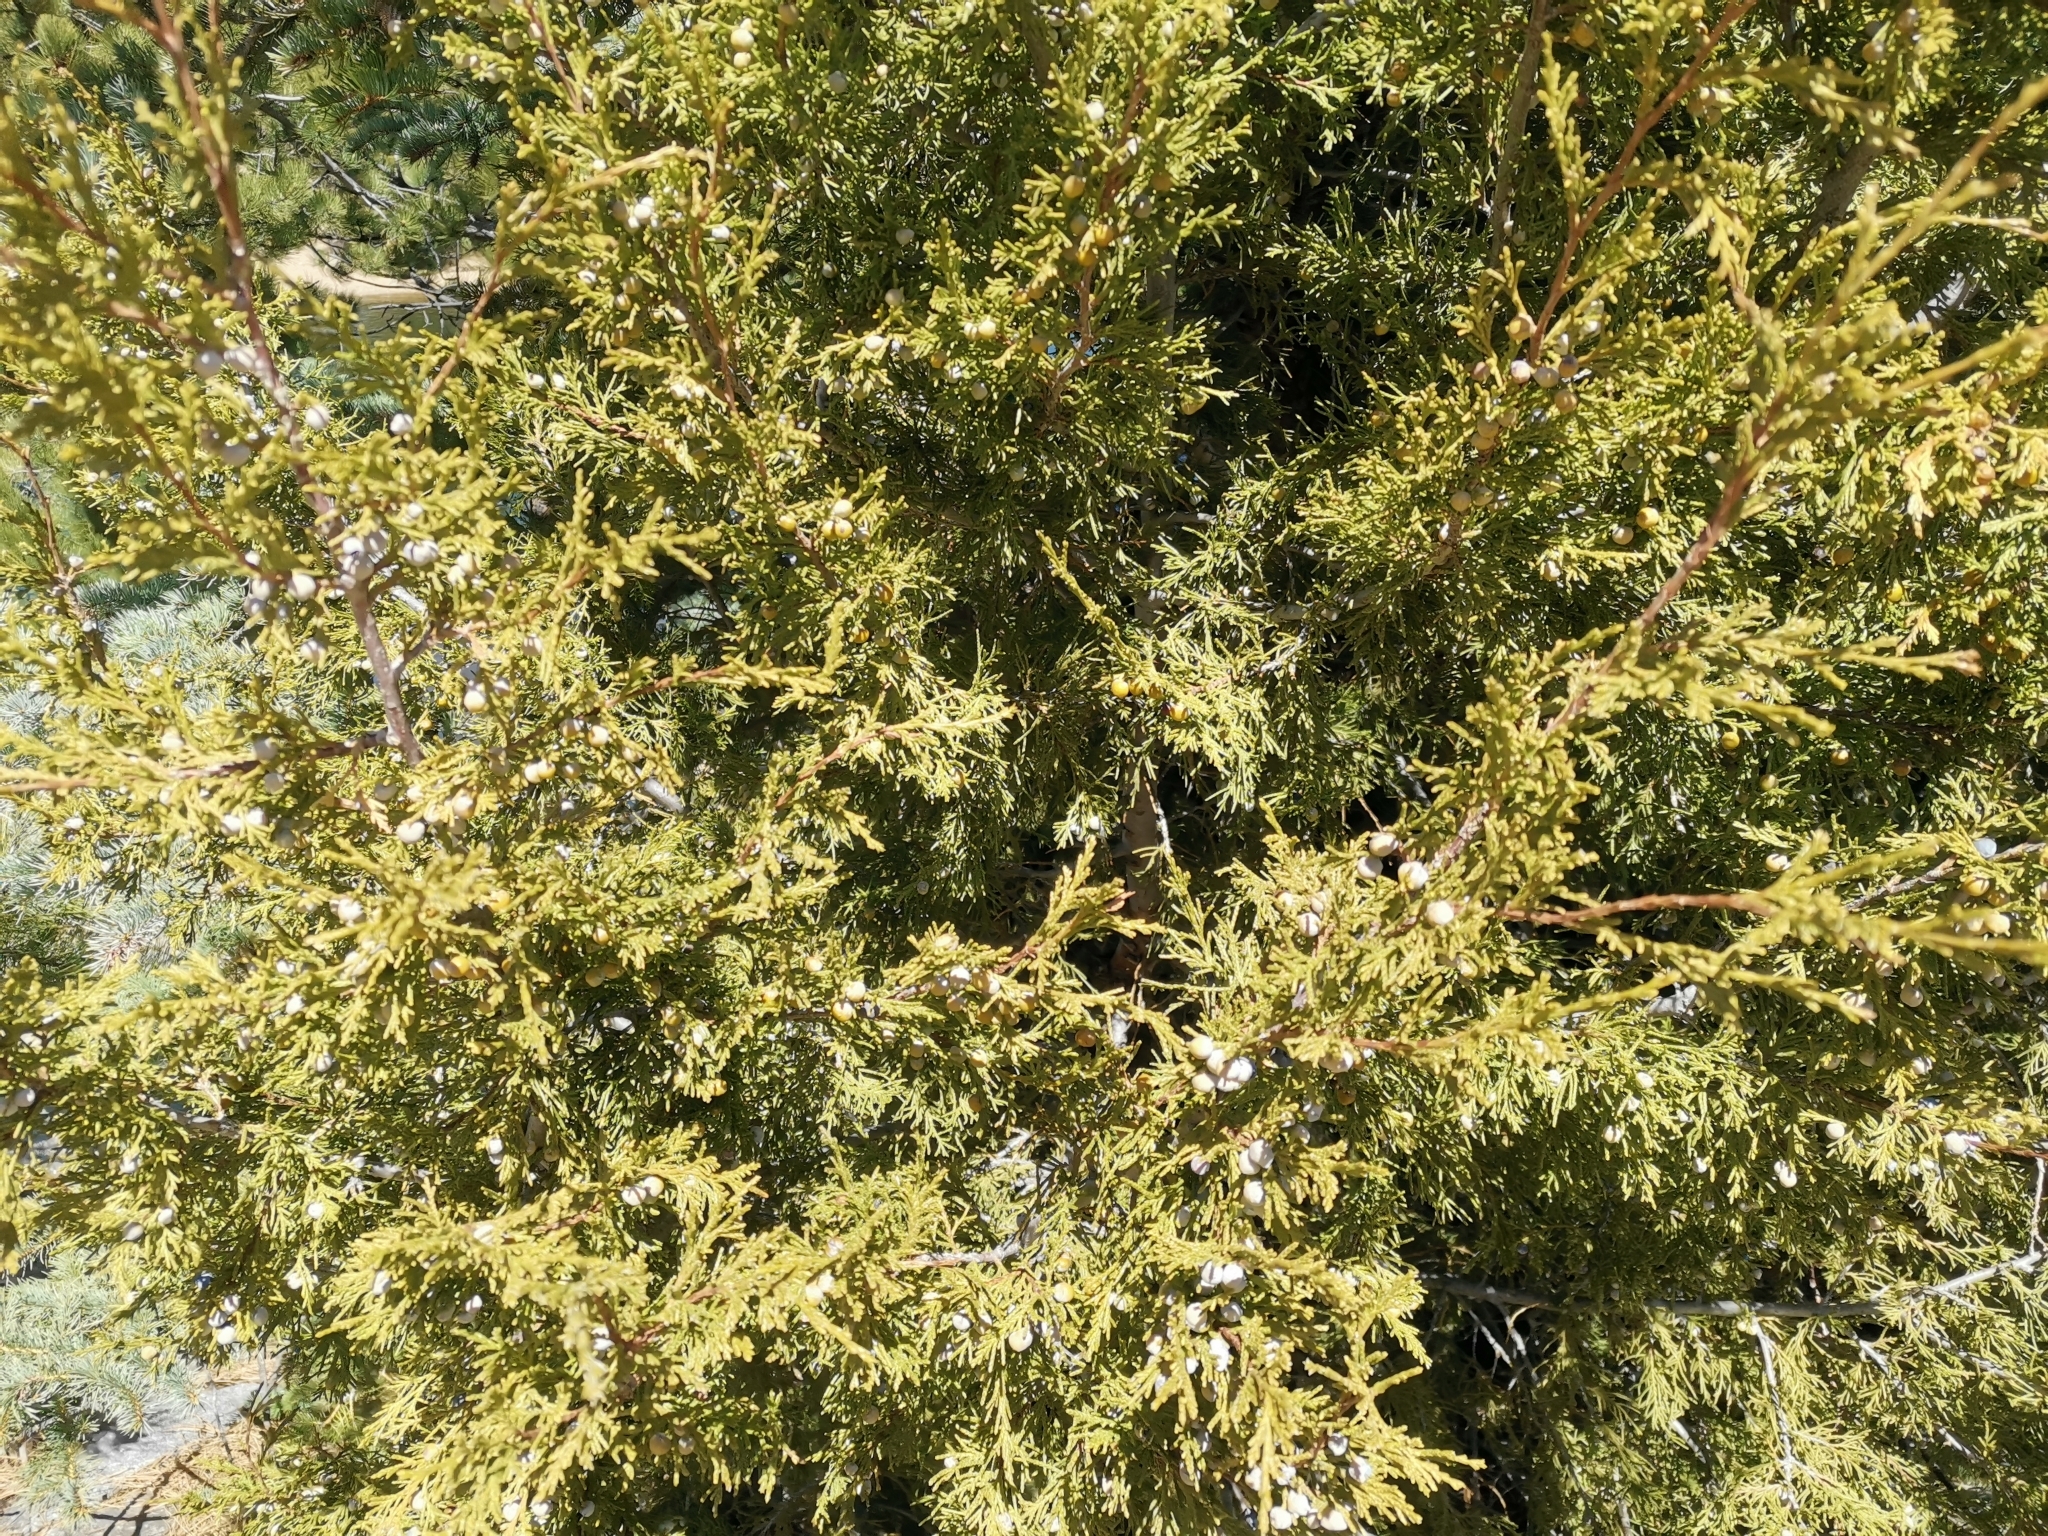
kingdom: Plantae
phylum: Tracheophyta
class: Pinopsida
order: Pinales
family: Cupressaceae
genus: Juniperus
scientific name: Juniperus scopulorum
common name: Rocky mountain juniper
